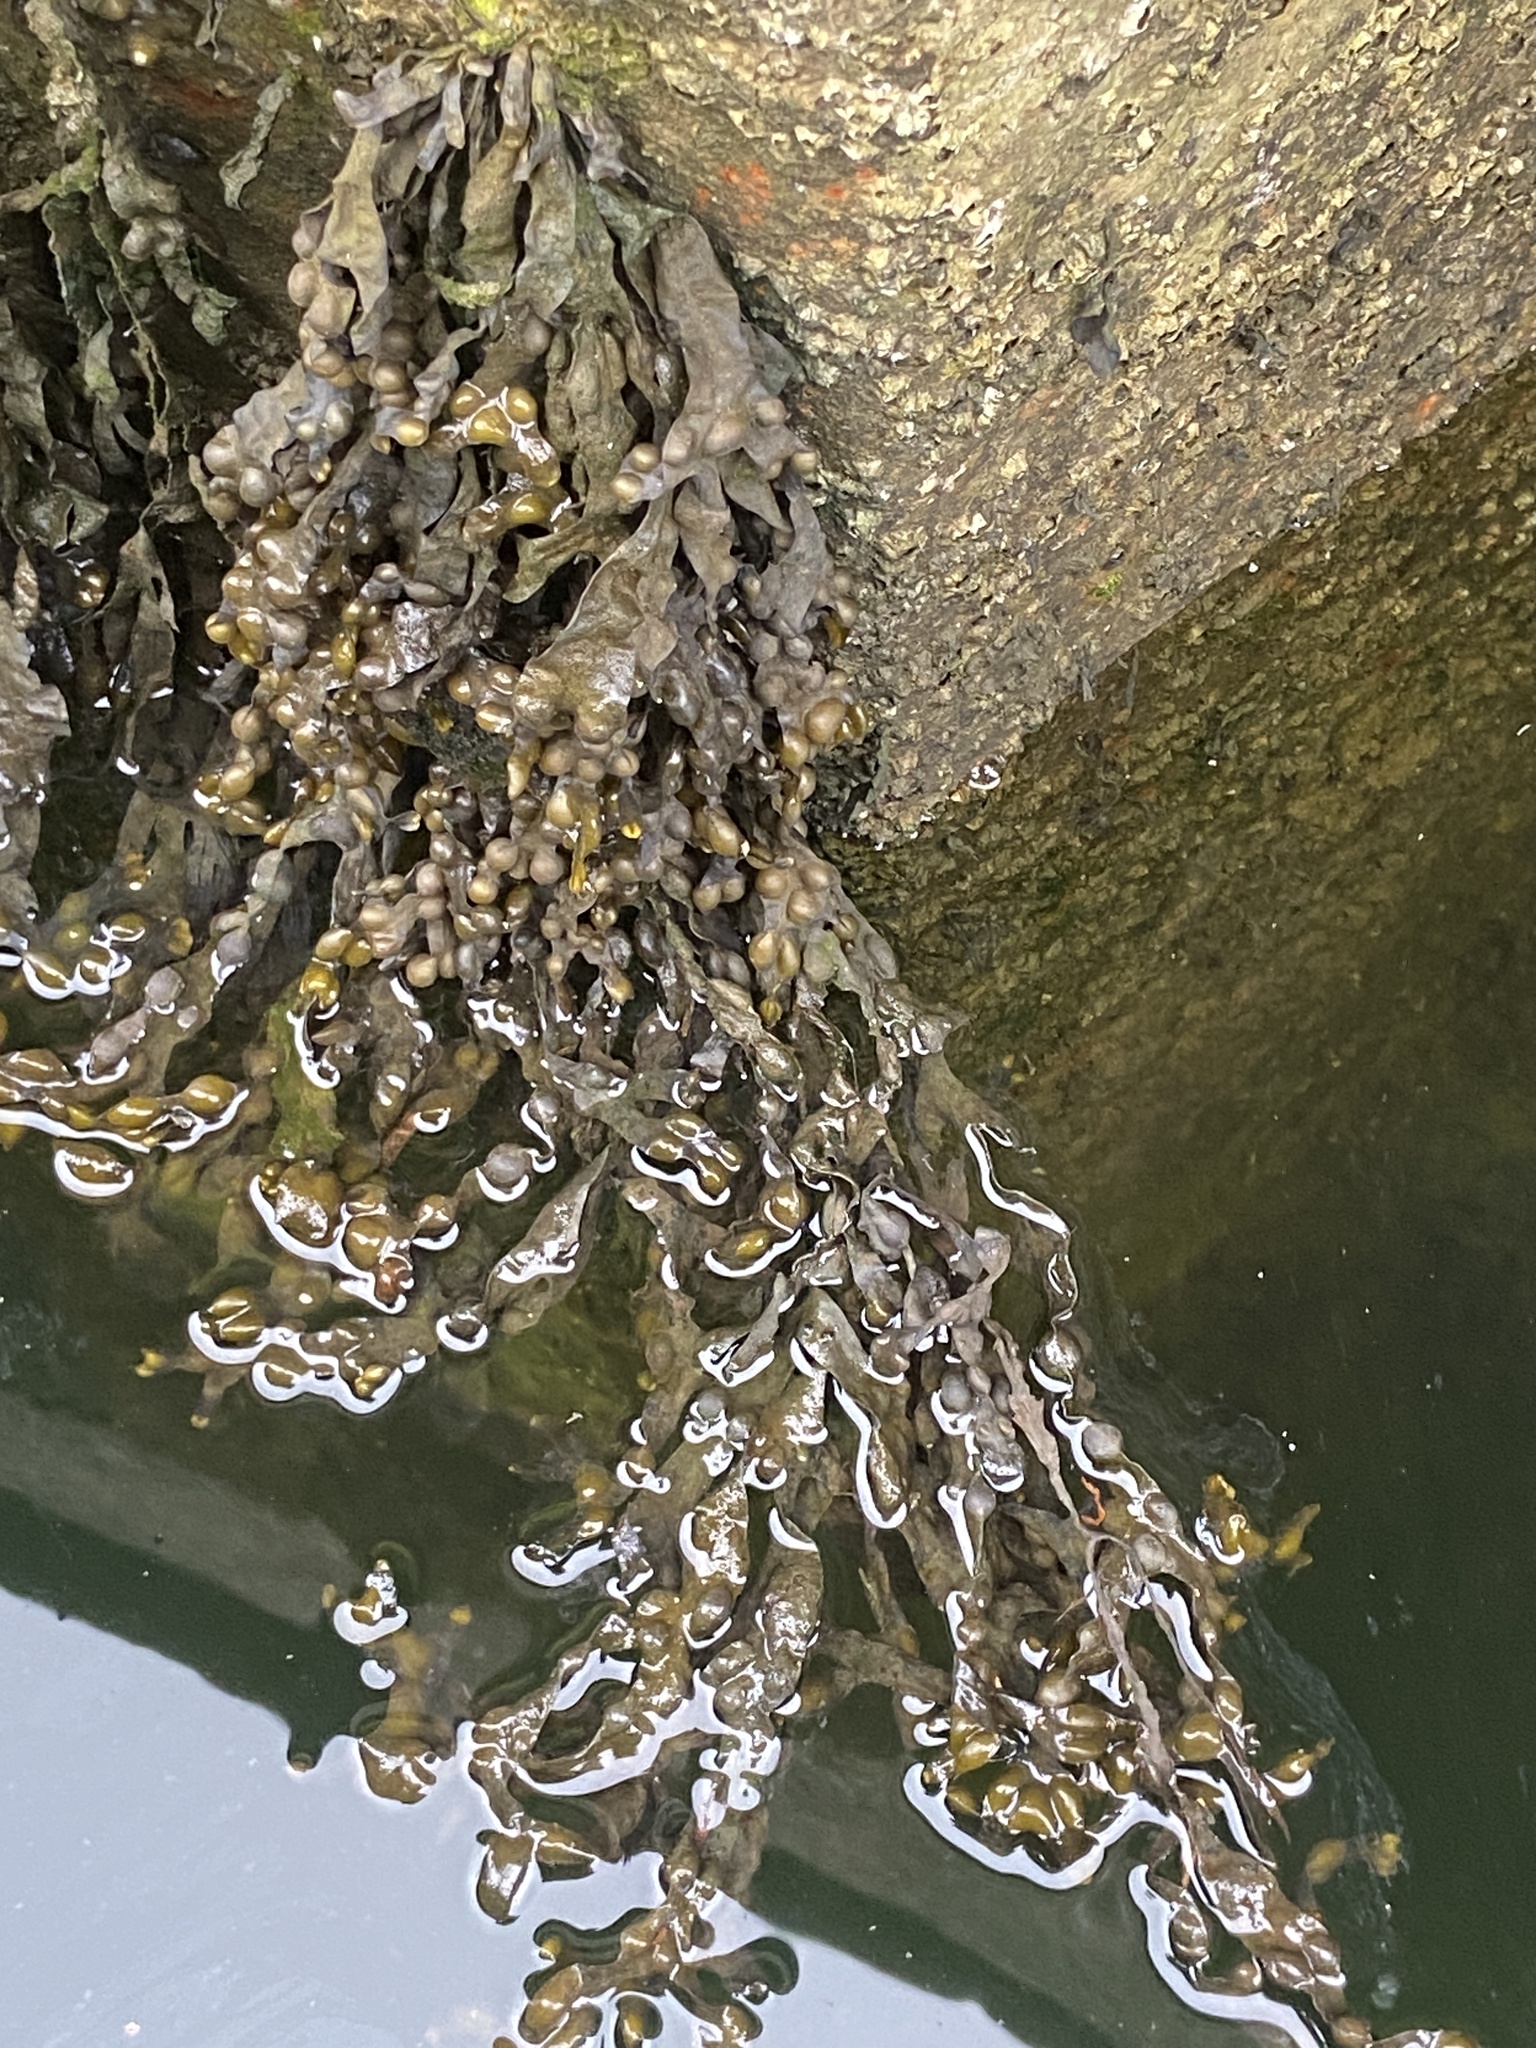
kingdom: Chromista
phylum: Ochrophyta
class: Phaeophyceae
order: Fucales
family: Fucaceae
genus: Fucus
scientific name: Fucus vesiculosus
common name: Bladder wrack
